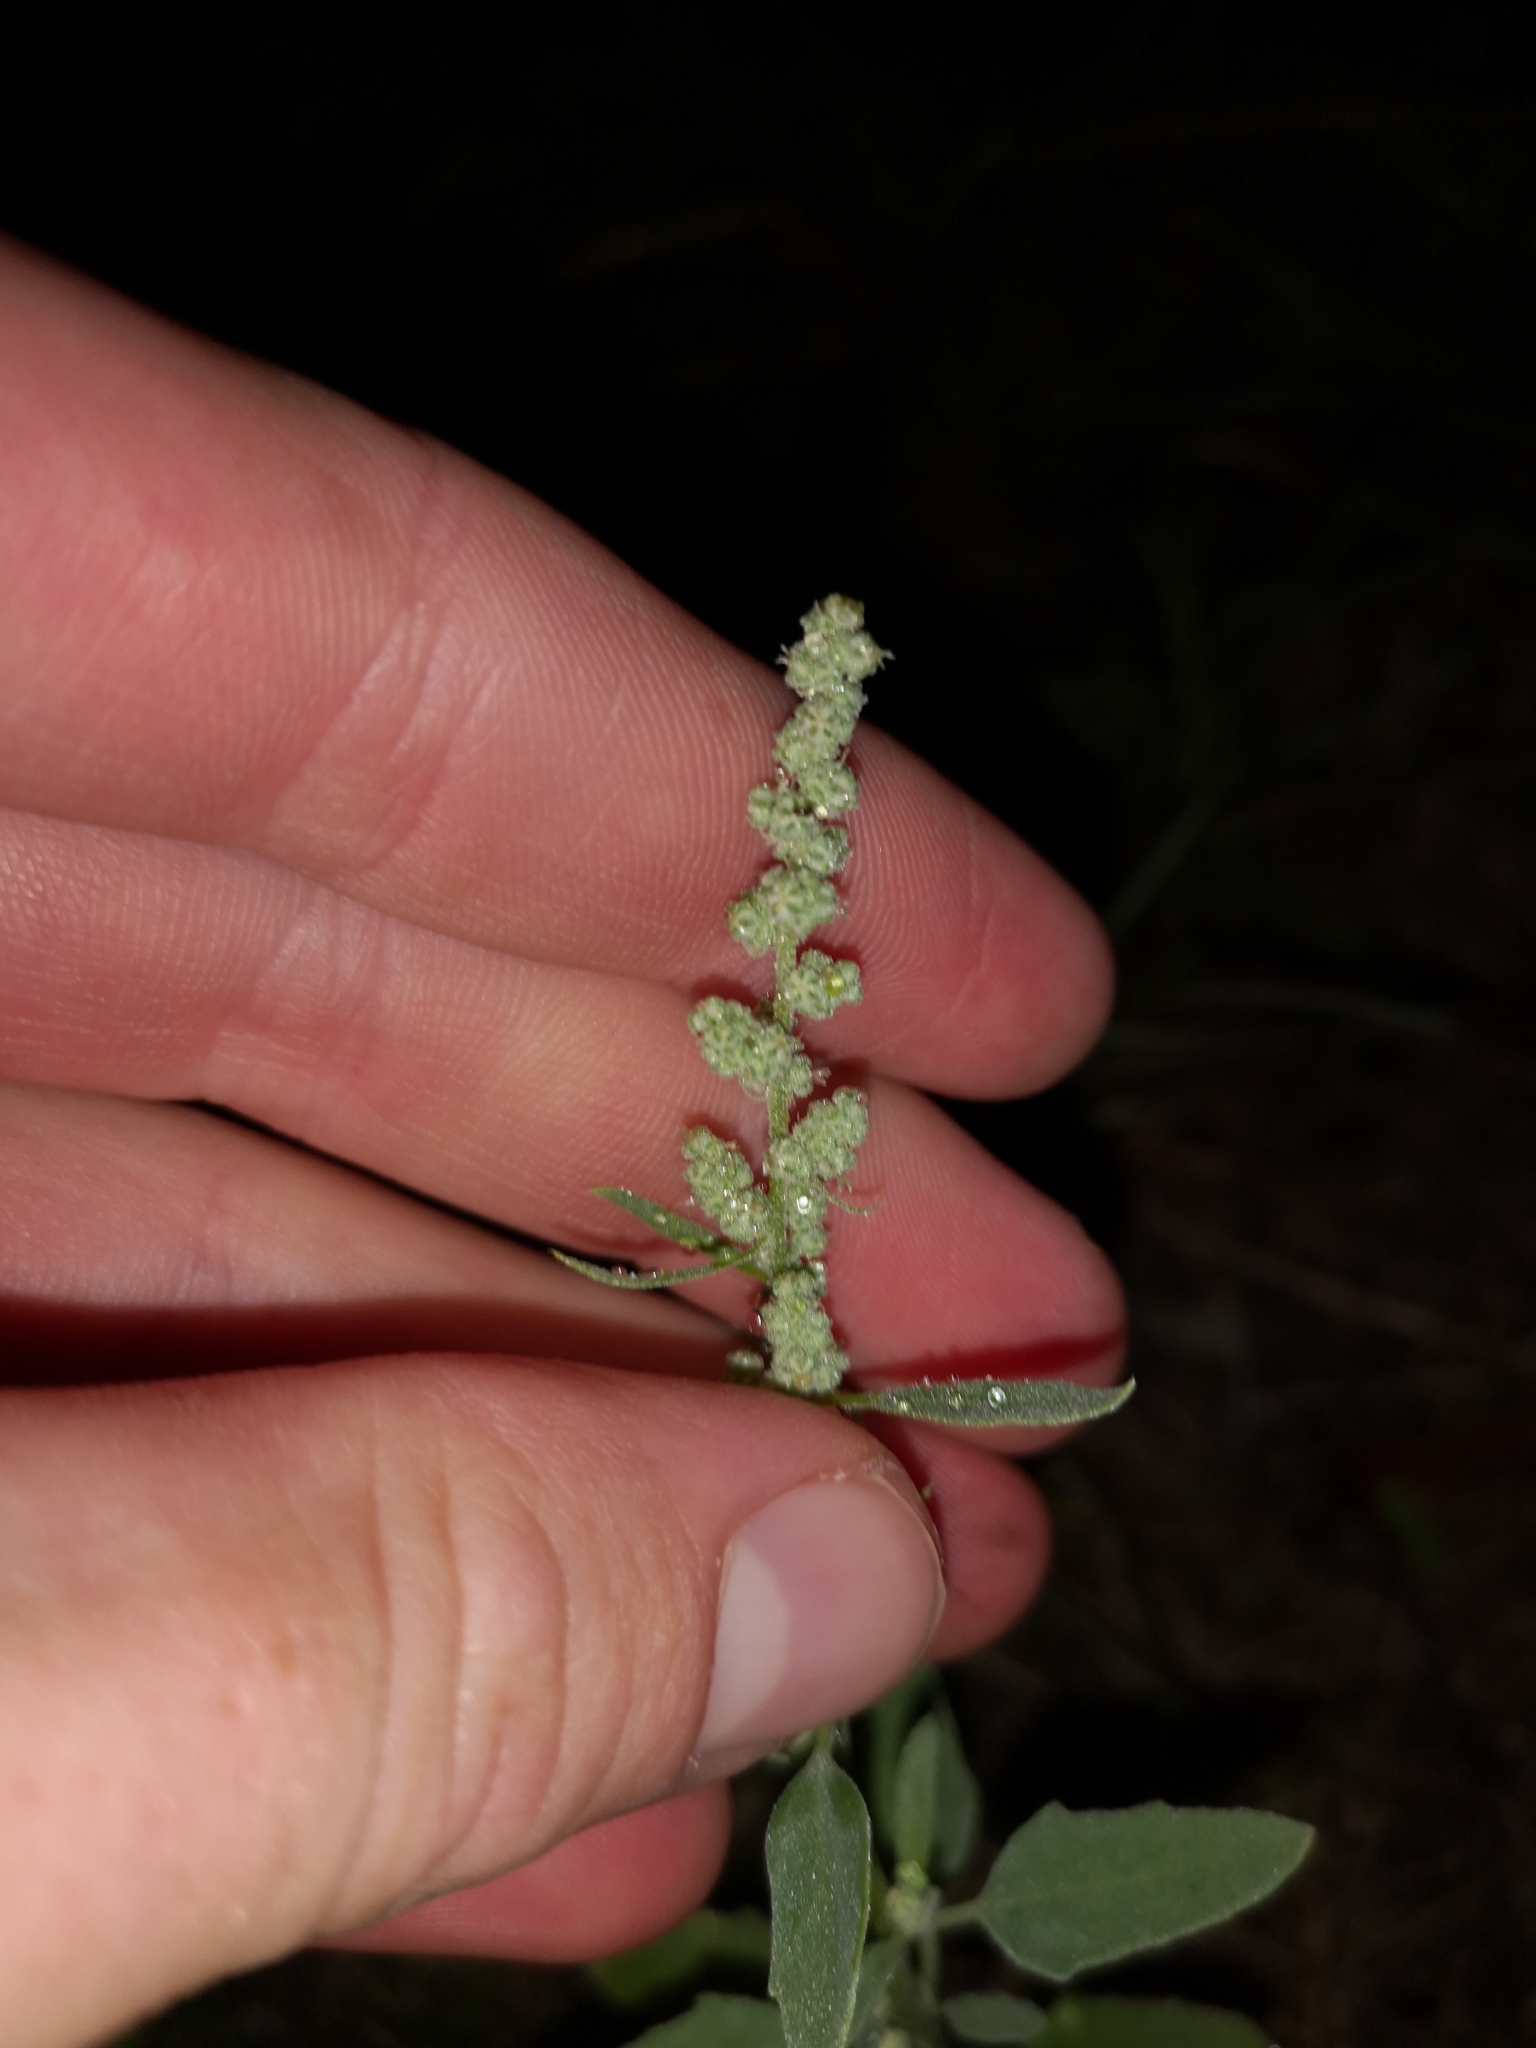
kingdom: Plantae
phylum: Tracheophyta
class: Magnoliopsida
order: Caryophyllales
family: Amaranthaceae
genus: Chenopodium
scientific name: Chenopodium album
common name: Fat-hen
